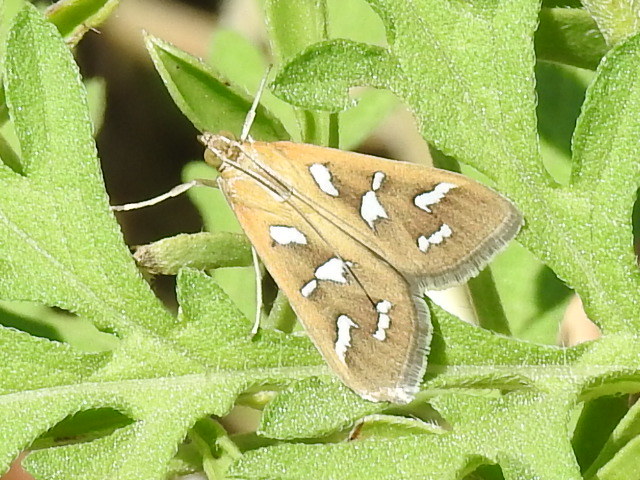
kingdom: Animalia
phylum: Arthropoda
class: Insecta
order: Lepidoptera
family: Crambidae
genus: Diastictis
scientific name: Diastictis fracturalis
